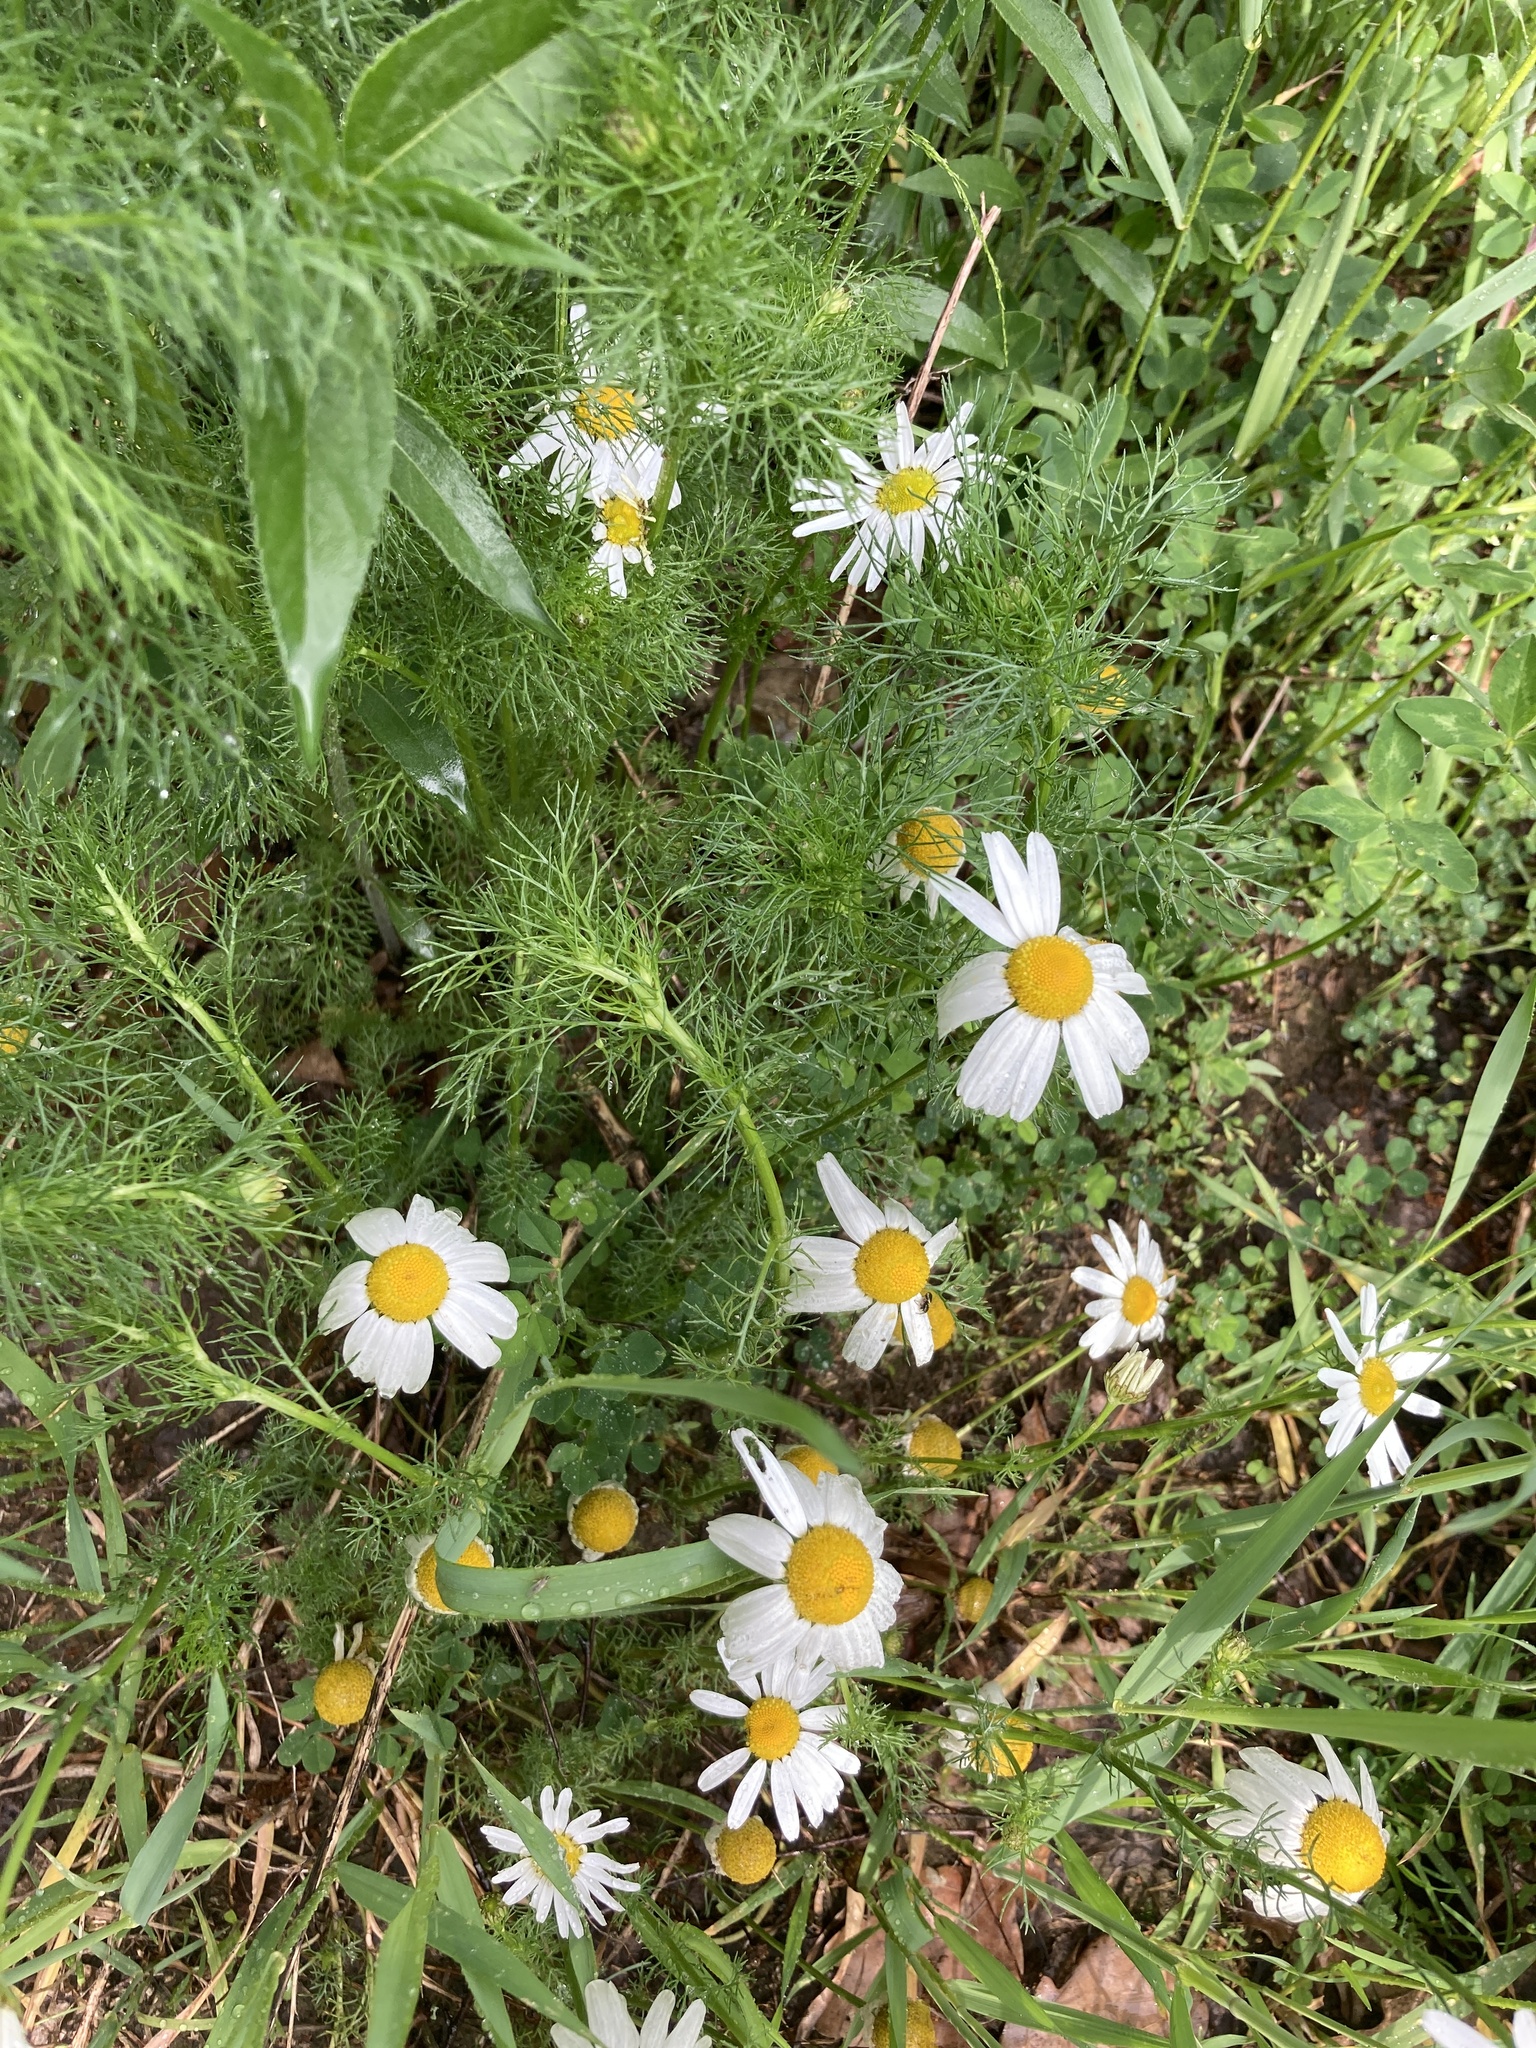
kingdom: Plantae
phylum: Tracheophyta
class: Magnoliopsida
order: Asterales
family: Asteraceae
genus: Tripleurospermum
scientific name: Tripleurospermum inodorum
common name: Scentless mayweed
